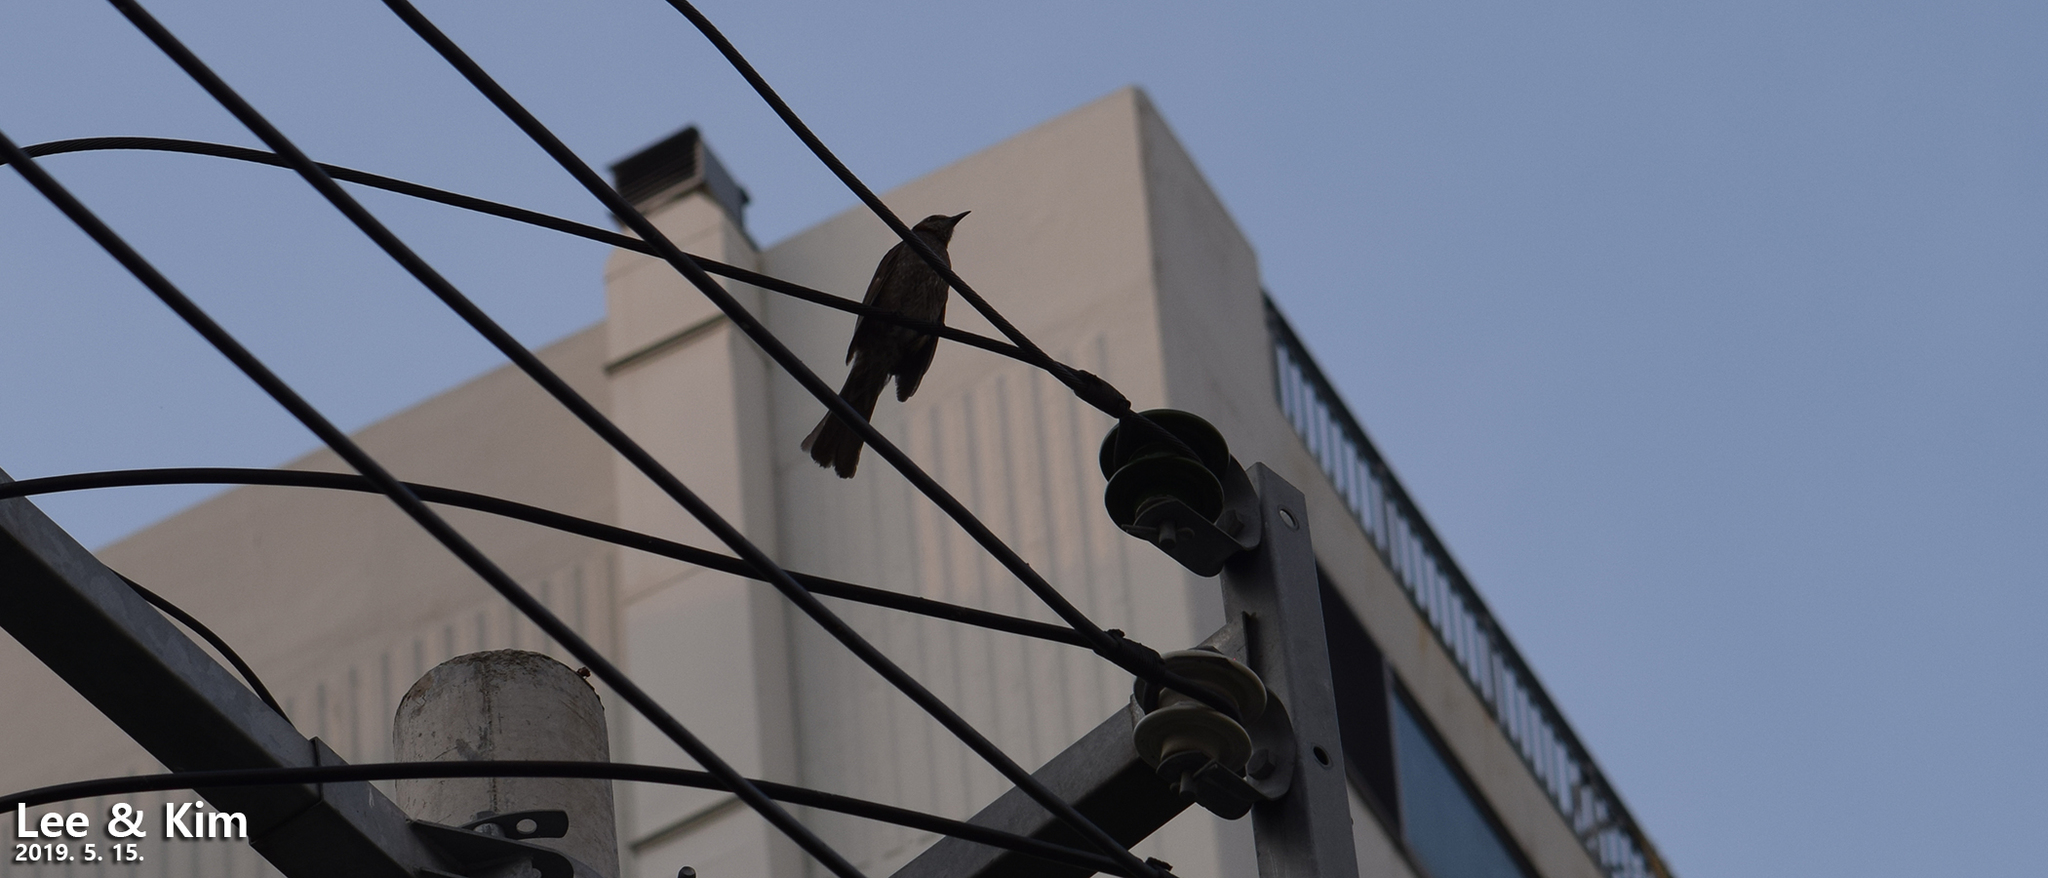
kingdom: Animalia
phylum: Chordata
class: Aves
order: Passeriformes
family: Pycnonotidae
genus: Hypsipetes
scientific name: Hypsipetes amaurotis
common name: Brown-eared bulbul
